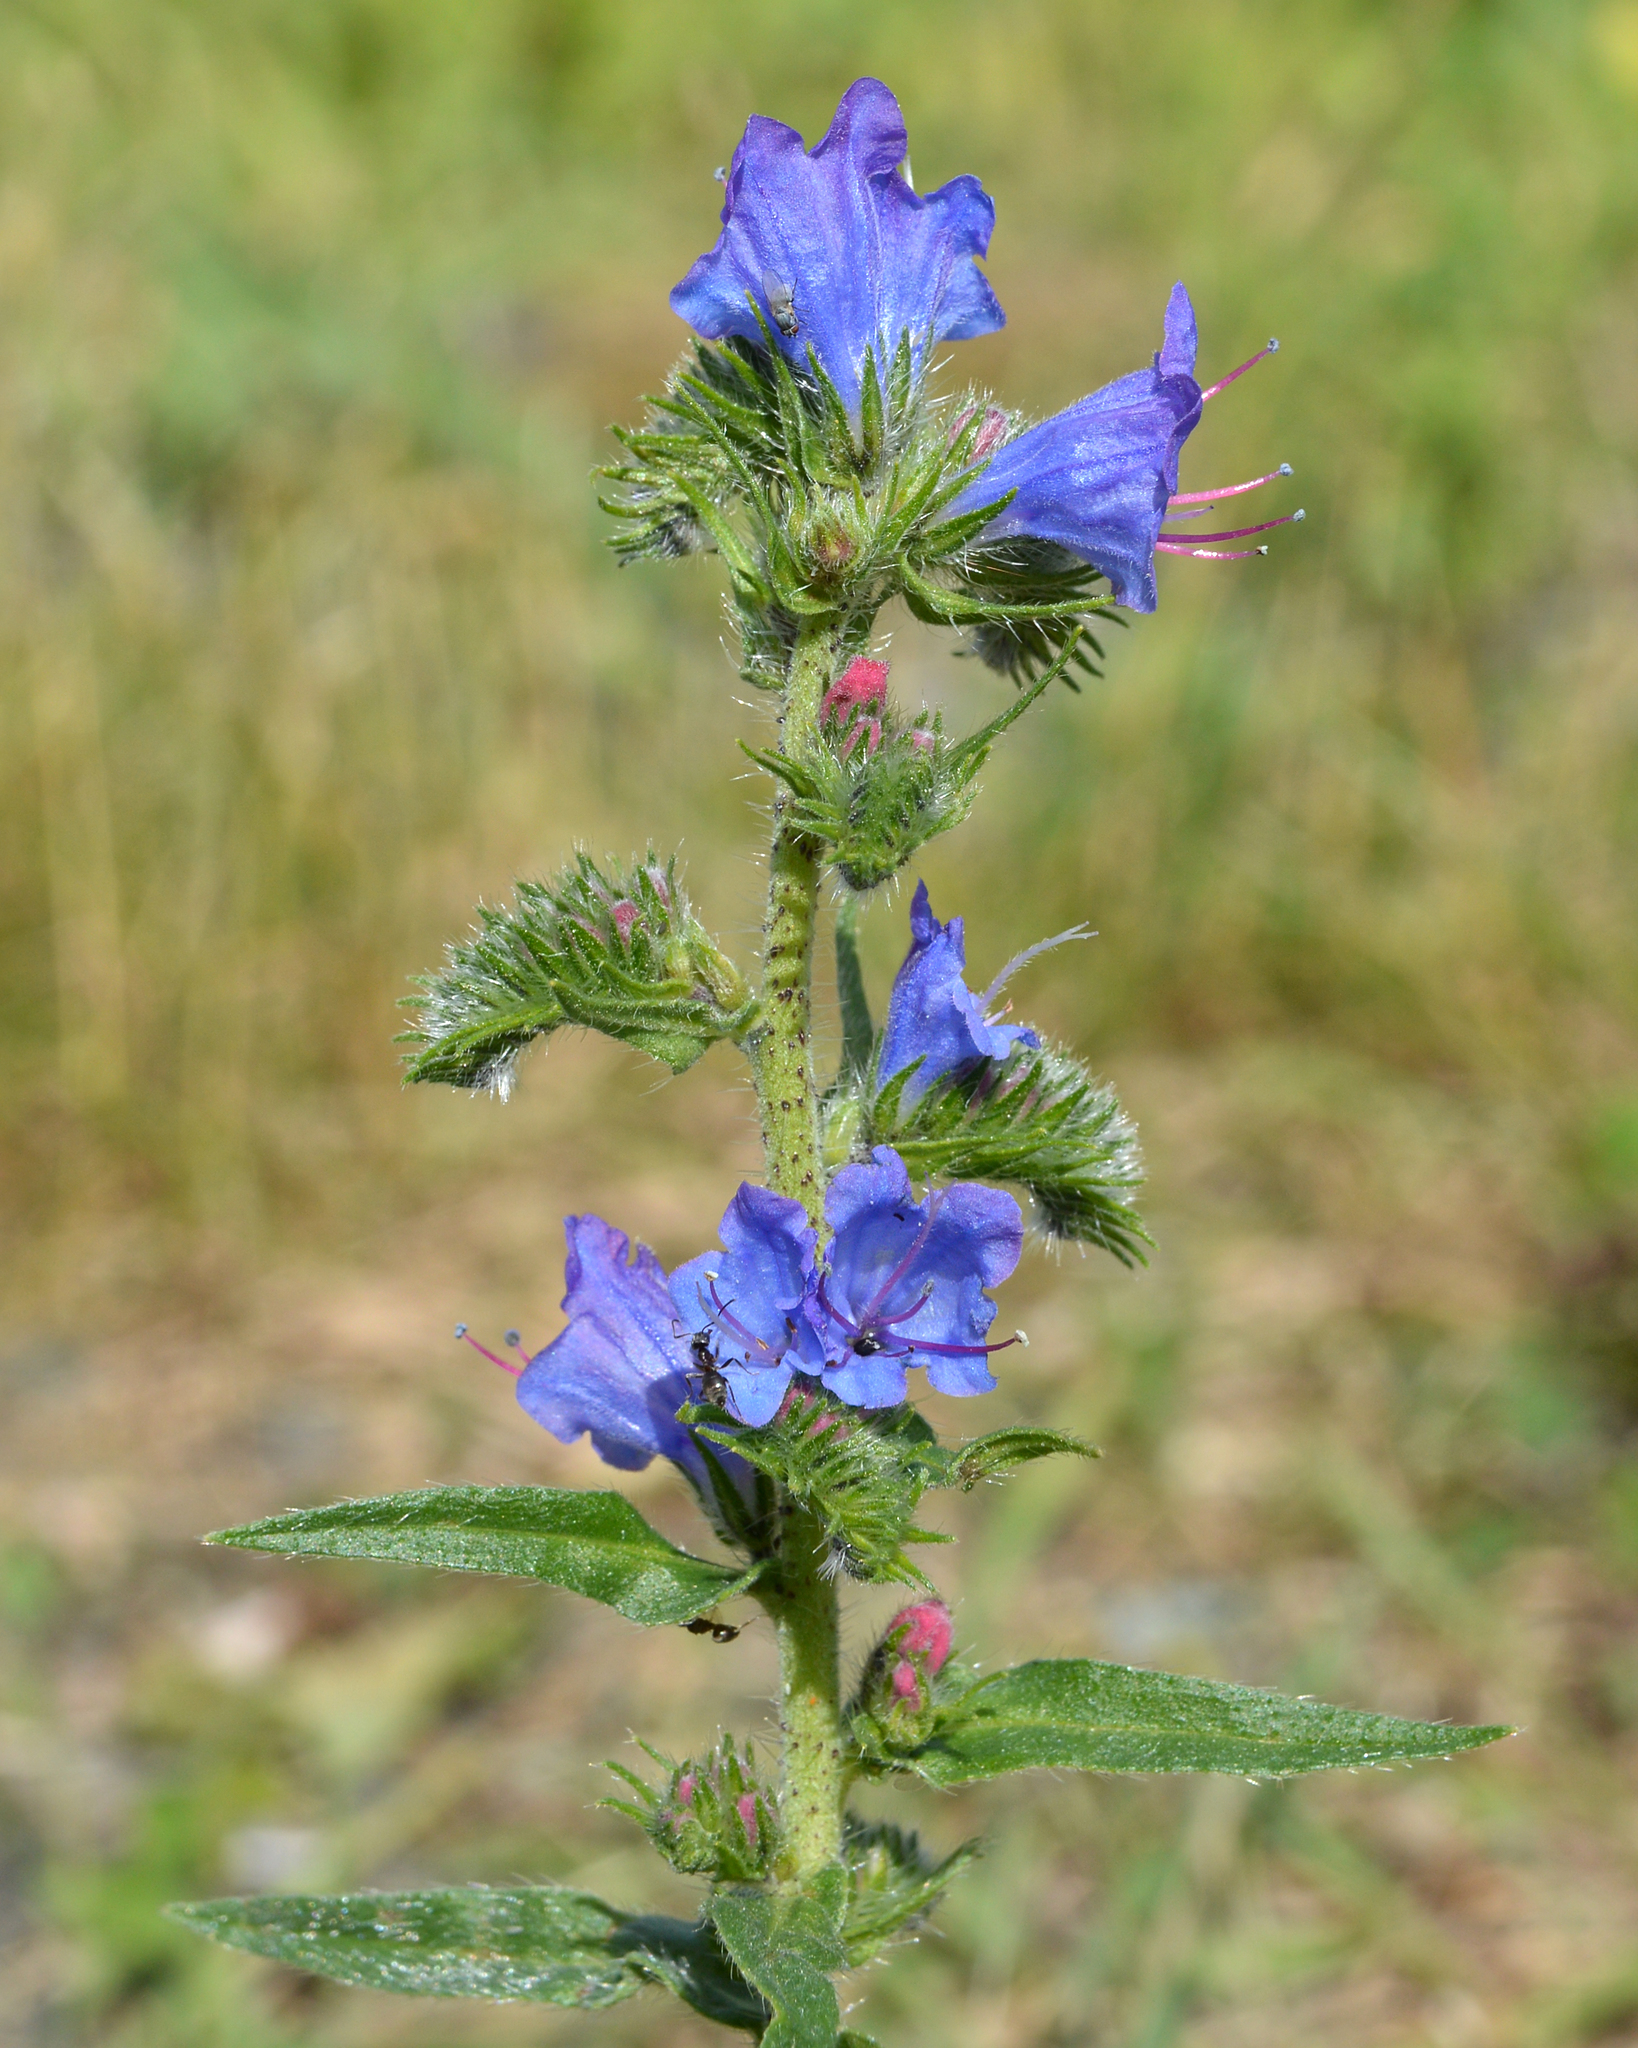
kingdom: Plantae
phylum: Tracheophyta
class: Magnoliopsida
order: Boraginales
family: Boraginaceae
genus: Echium
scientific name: Echium vulgare
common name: Common viper's bugloss
